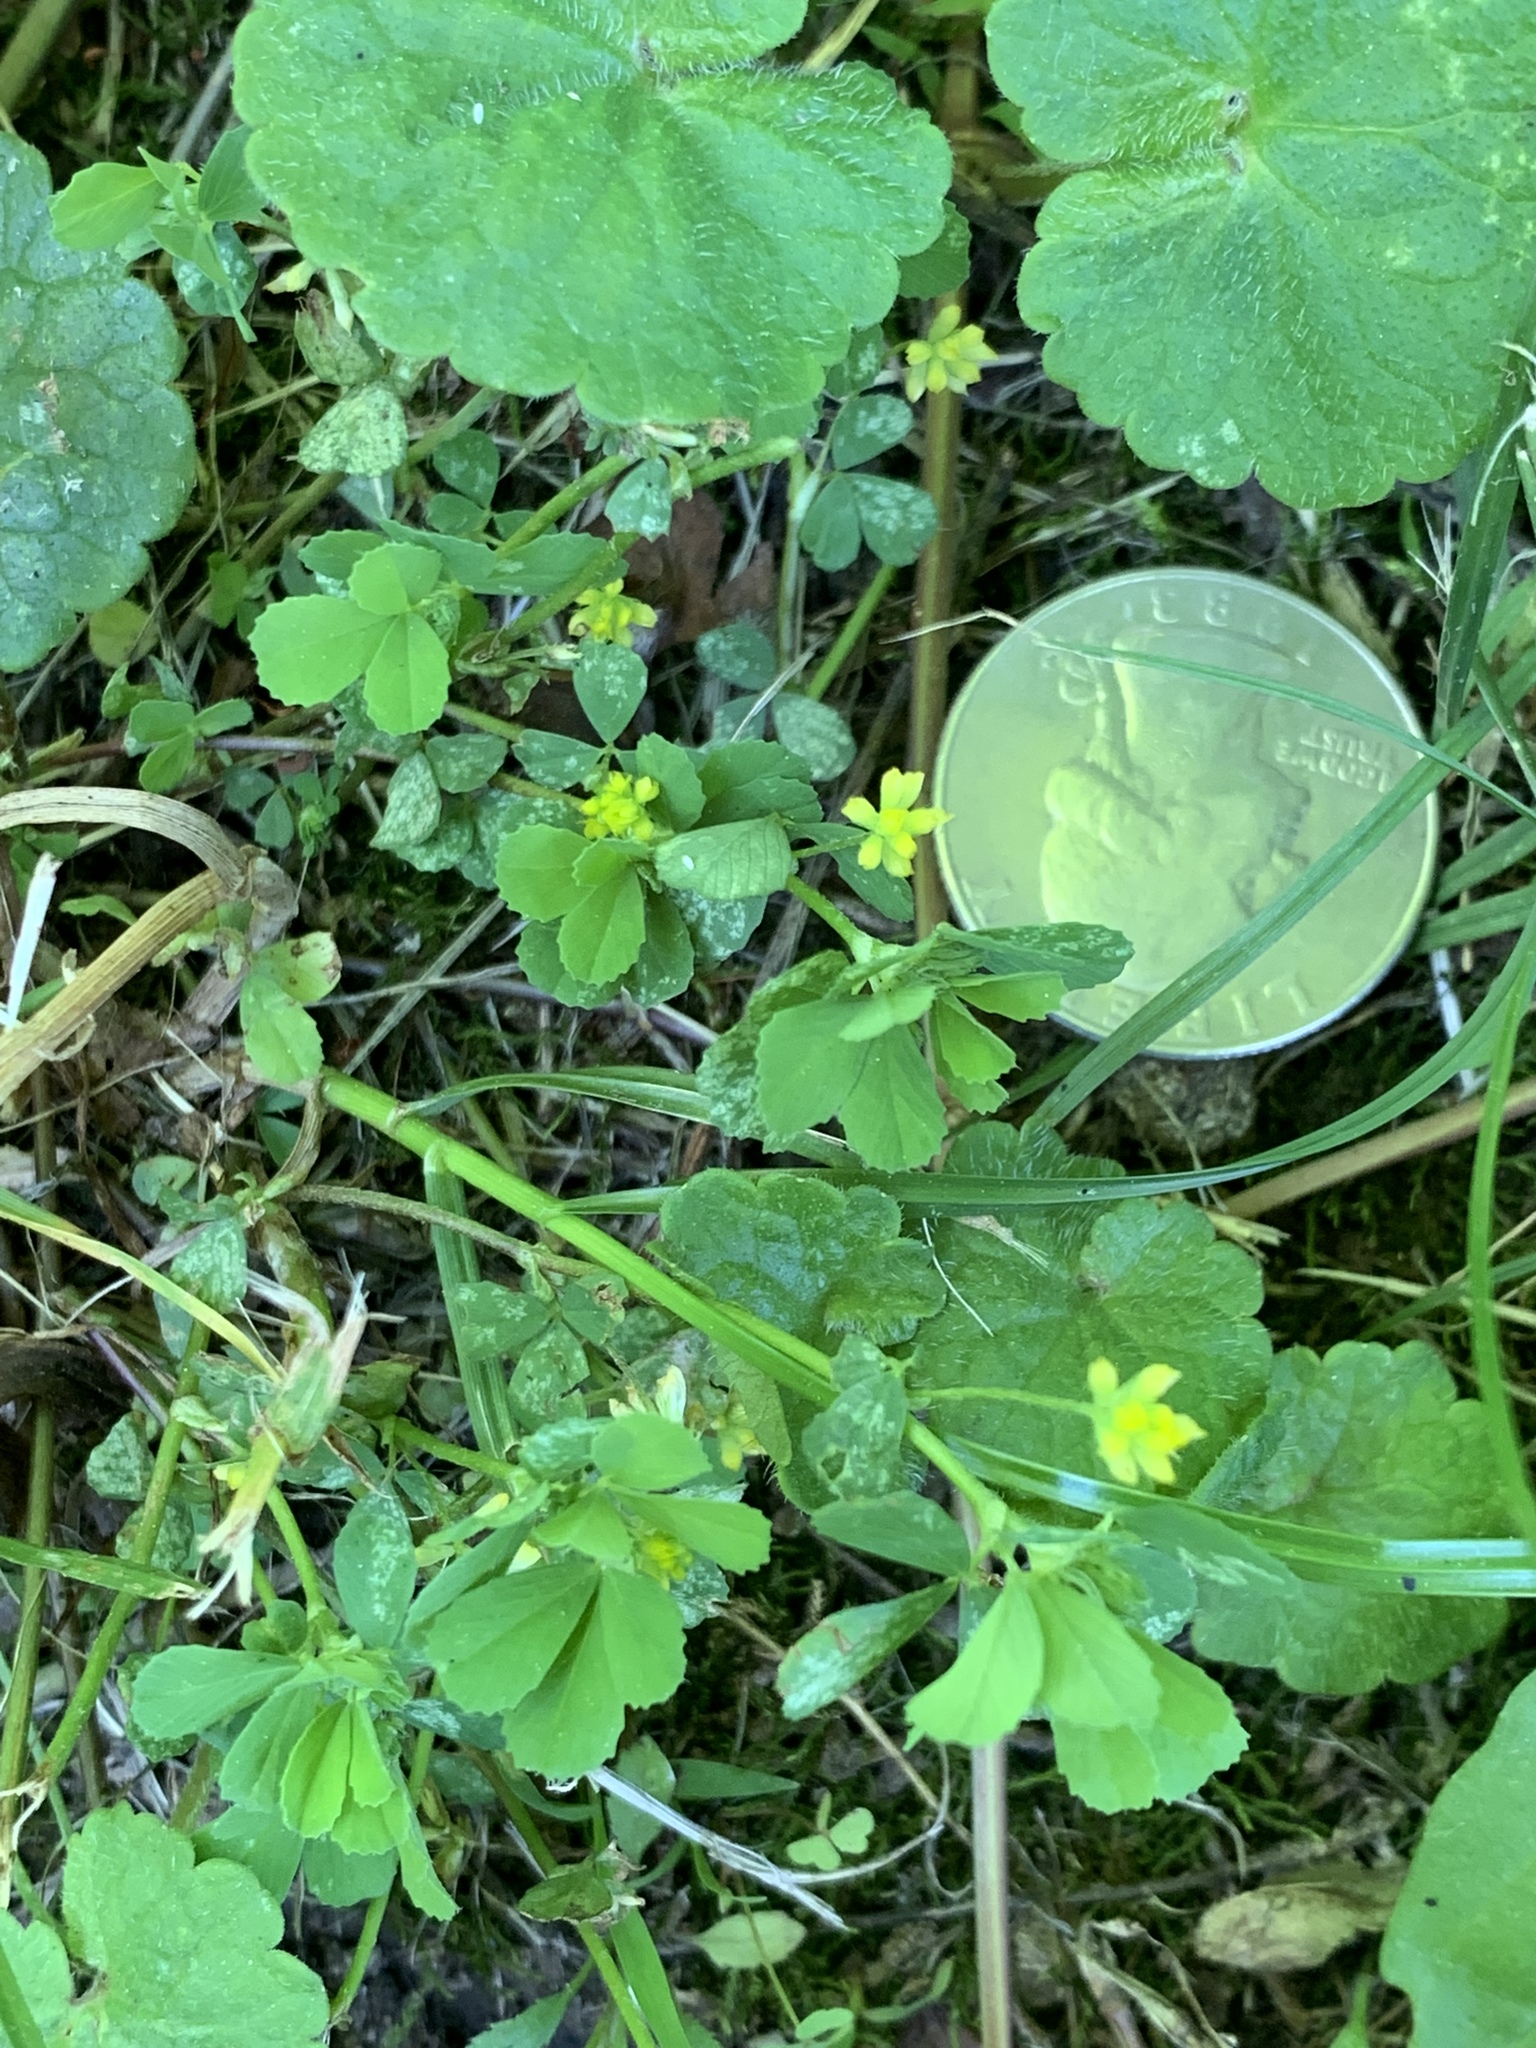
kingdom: Plantae
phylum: Tracheophyta
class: Magnoliopsida
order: Fabales
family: Fabaceae
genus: Trifolium
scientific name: Trifolium dubium
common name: Suckling clover
